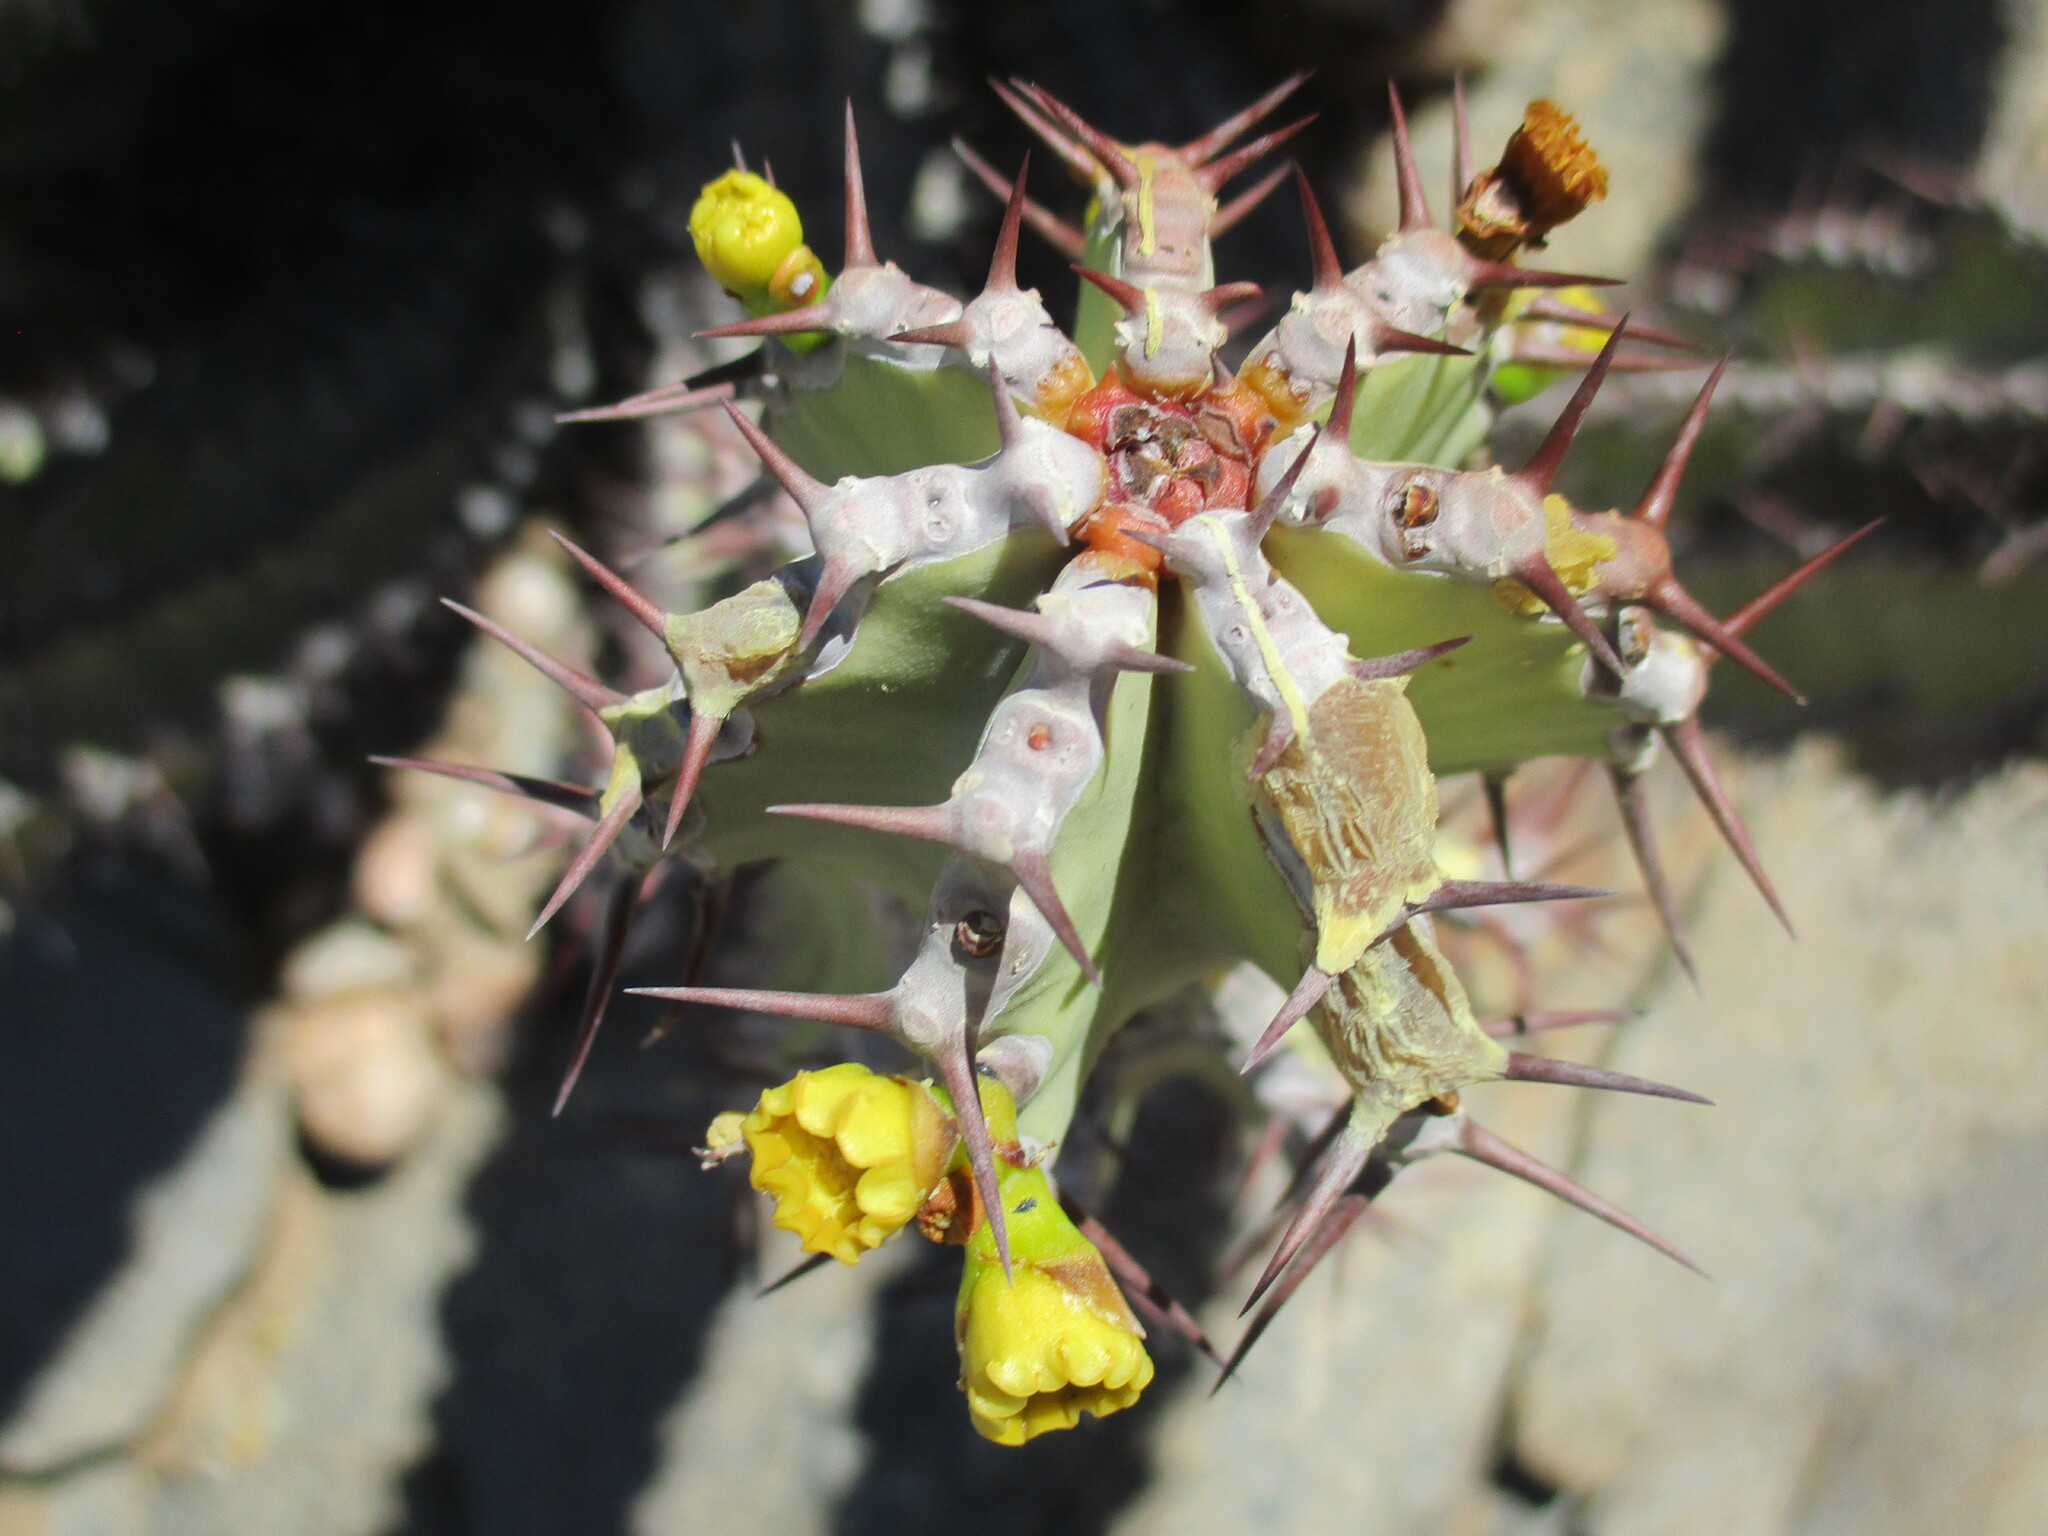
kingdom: Plantae
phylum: Tracheophyta
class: Magnoliopsida
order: Malpighiales
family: Euphorbiaceae
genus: Euphorbia
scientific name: Euphorbia virosa
